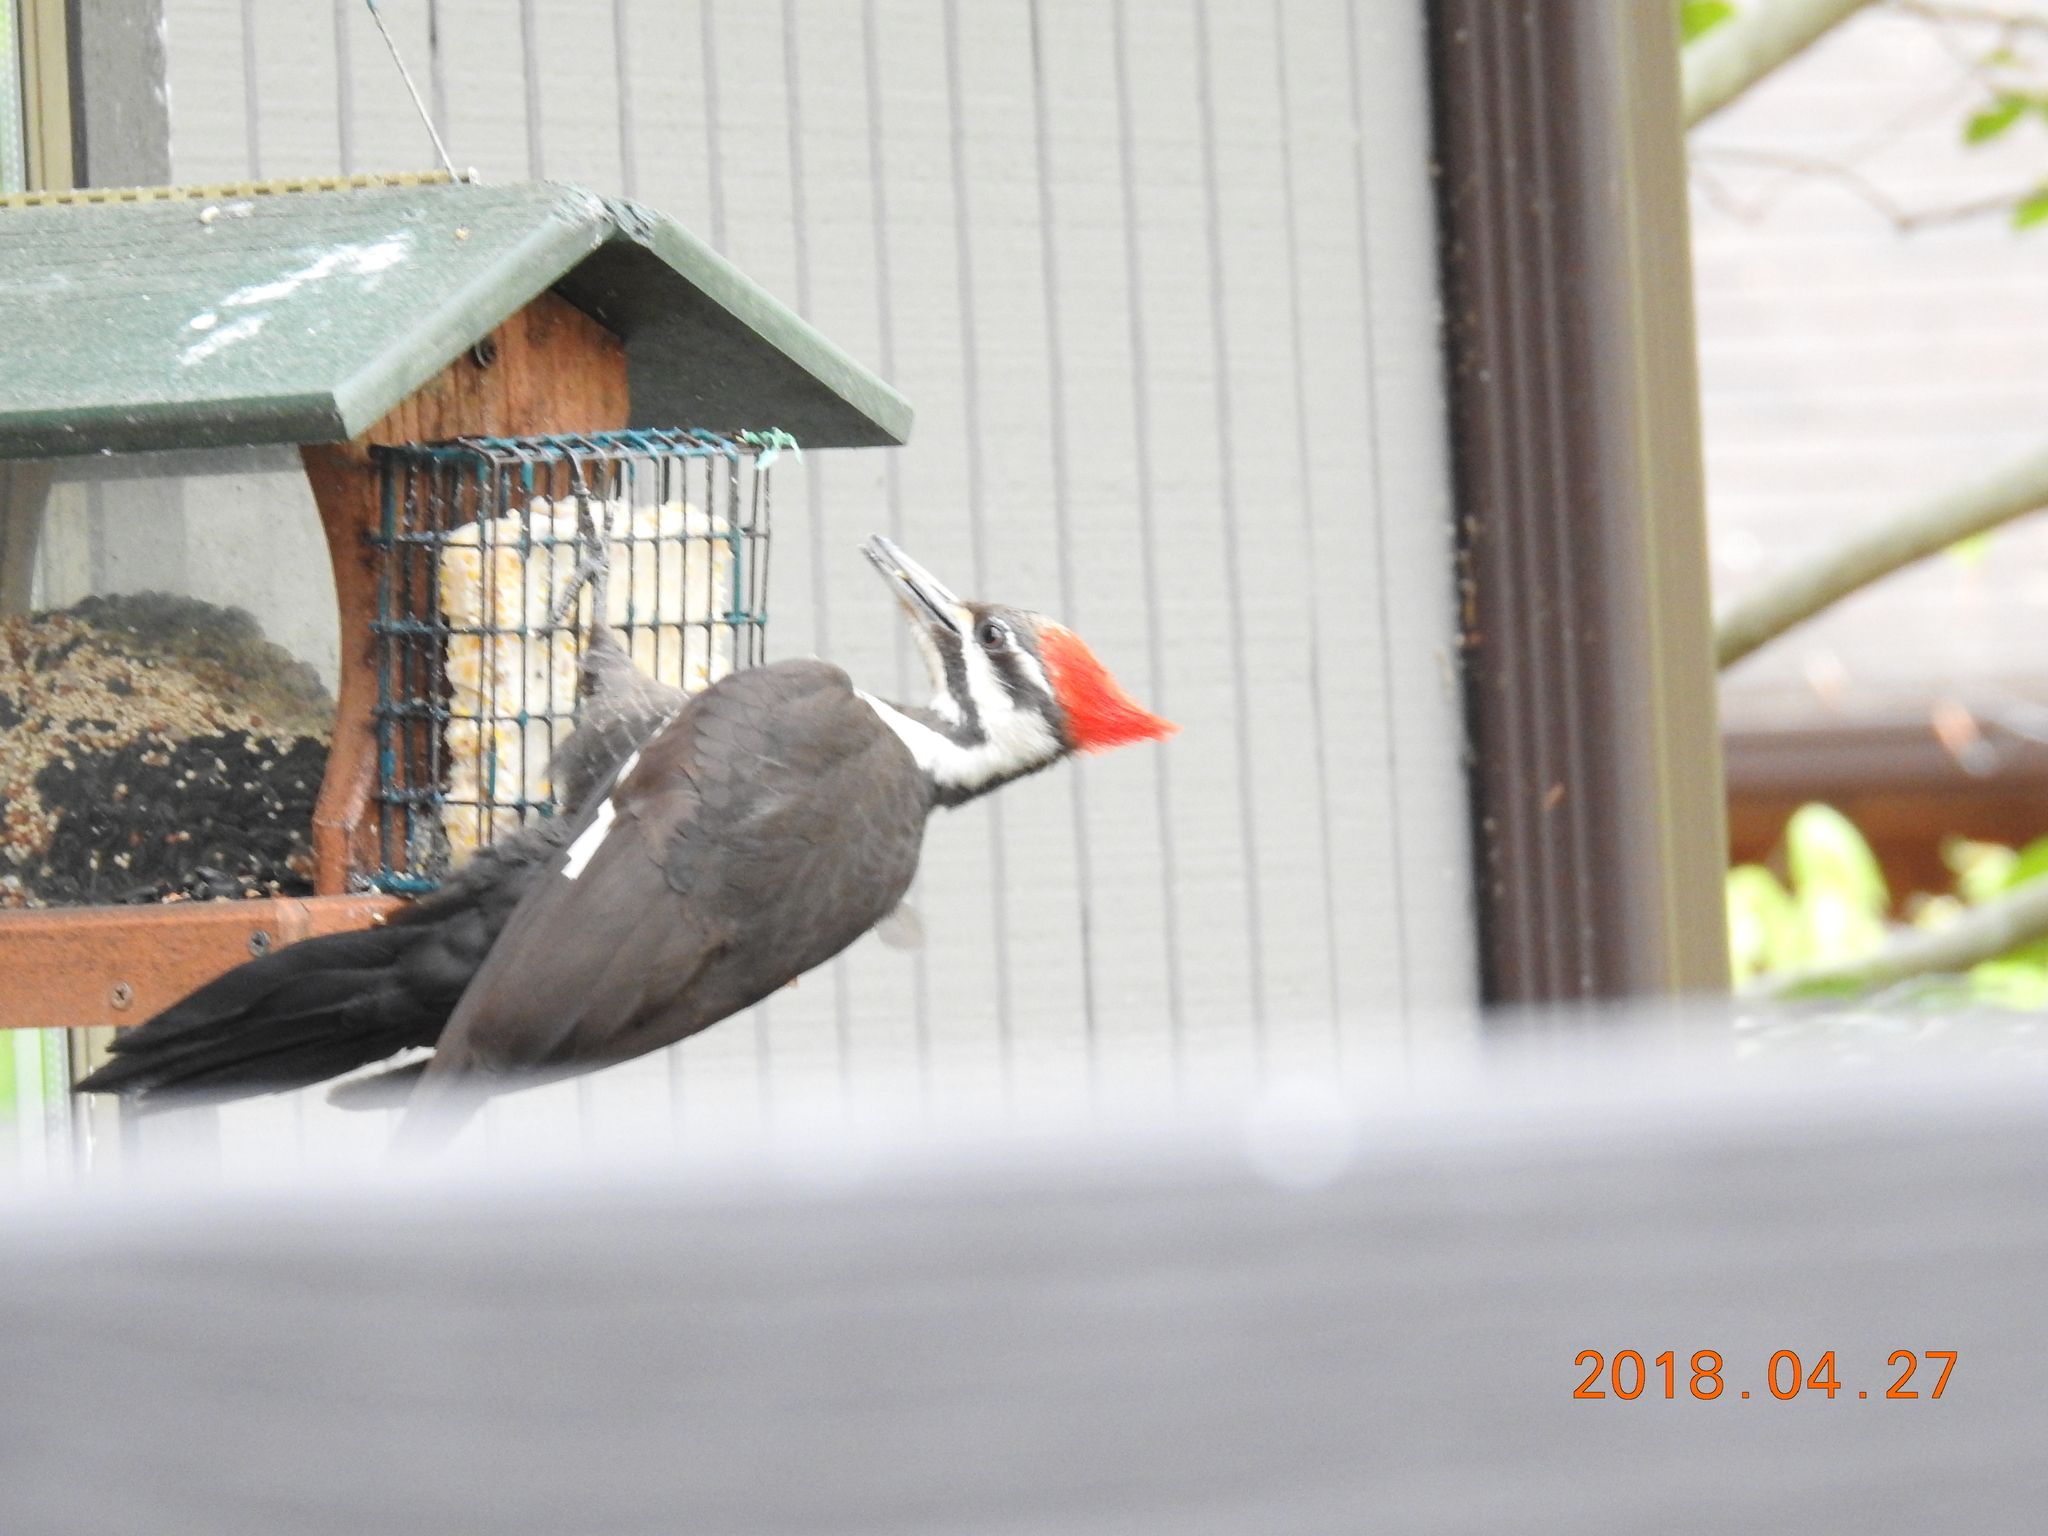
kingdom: Animalia
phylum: Chordata
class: Aves
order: Piciformes
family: Picidae
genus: Dryocopus
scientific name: Dryocopus pileatus
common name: Pileated woodpecker
